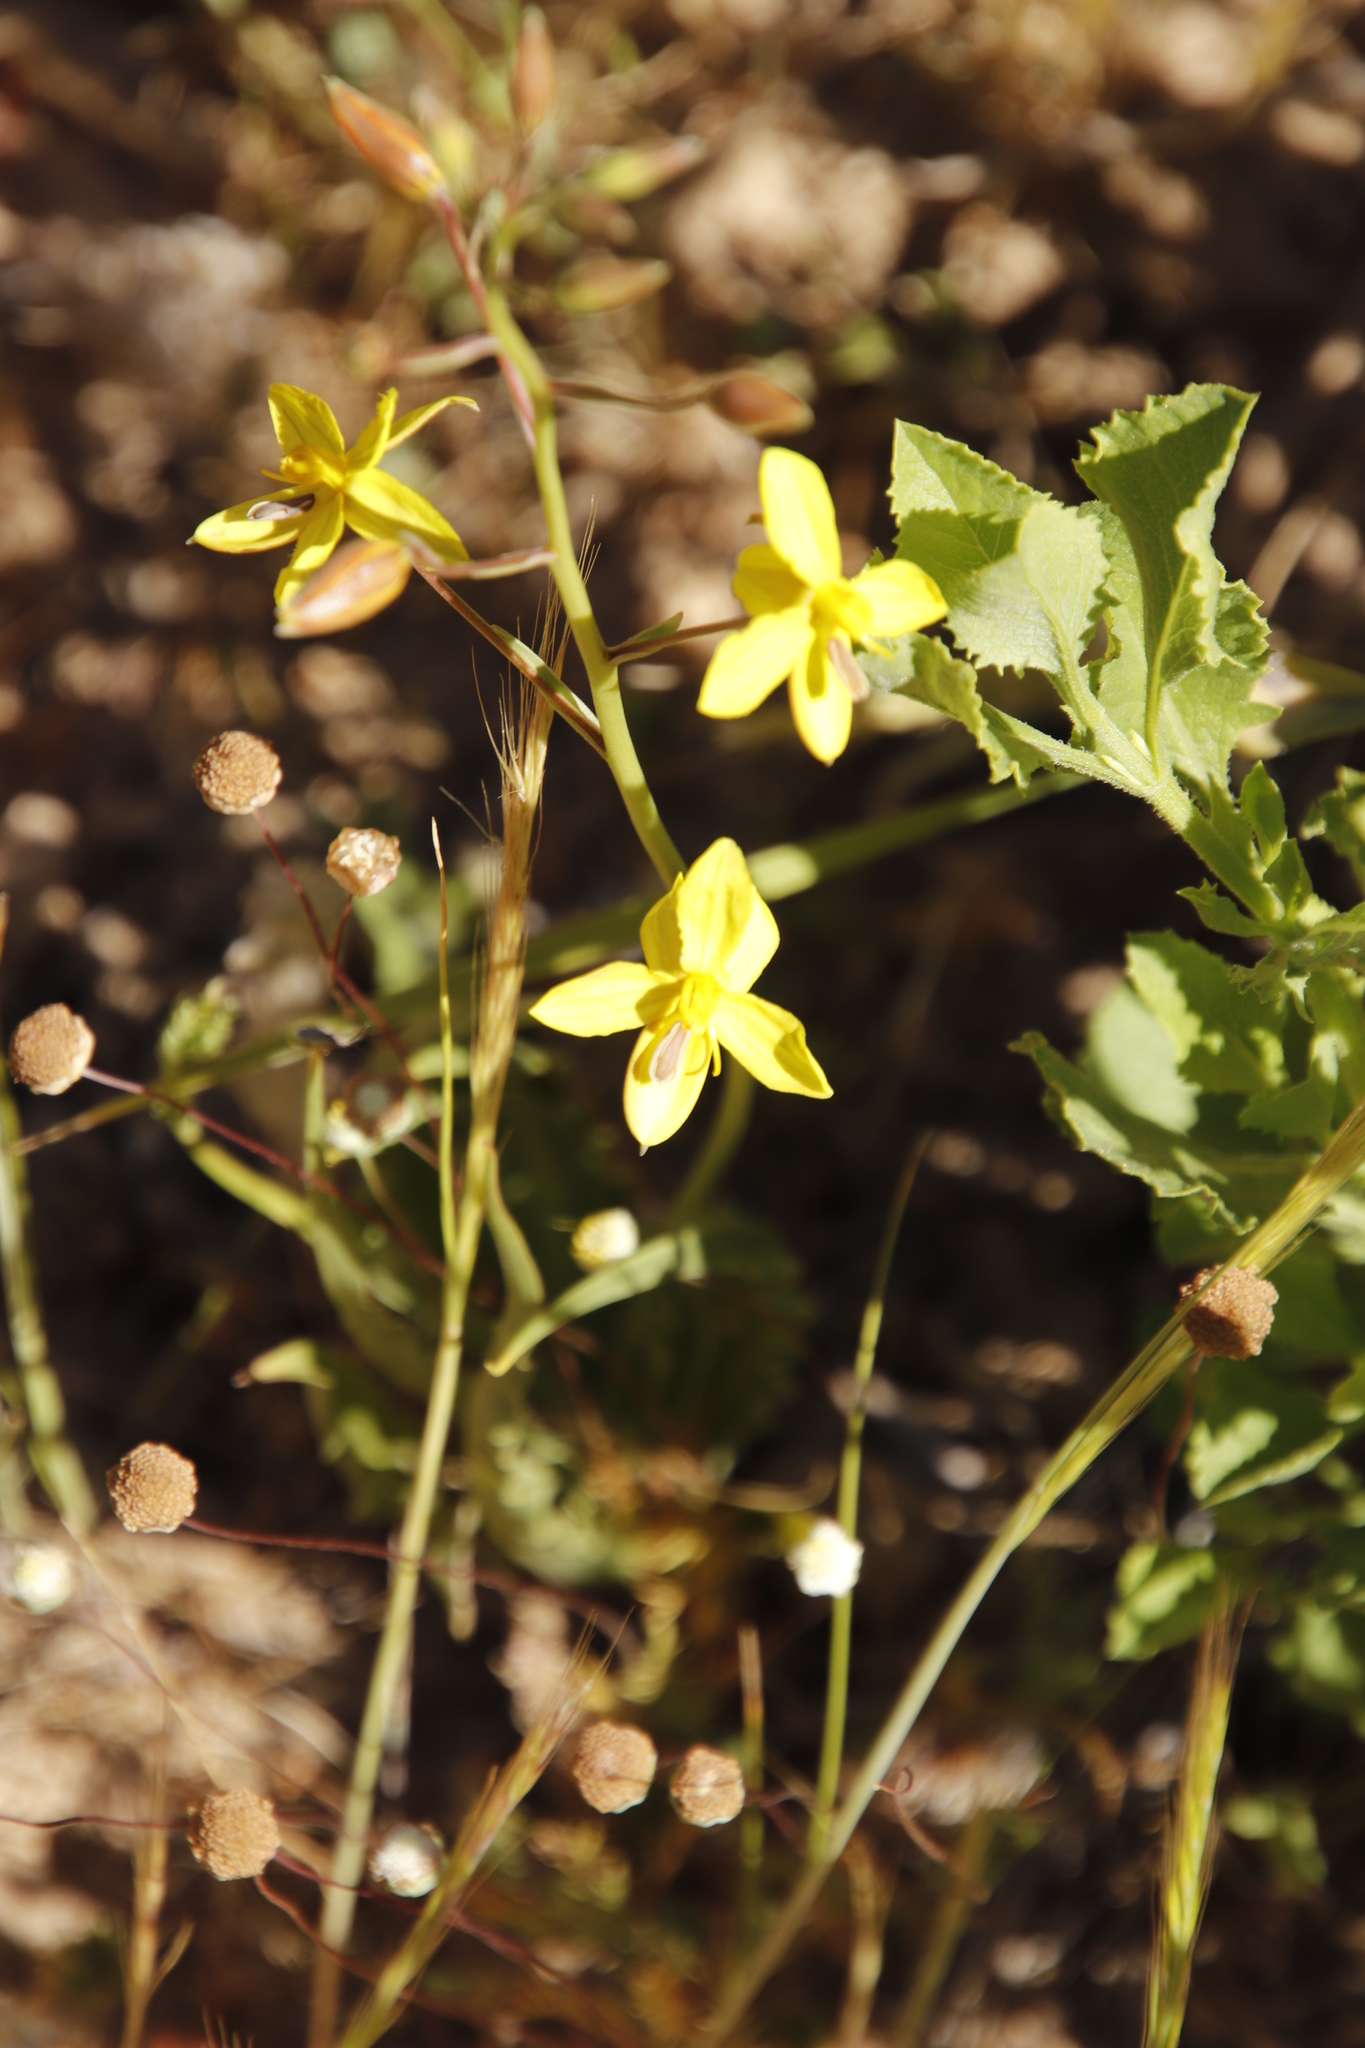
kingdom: Plantae
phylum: Tracheophyta
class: Liliopsida
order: Asparagales
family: Tecophilaeaceae
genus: Cyanella
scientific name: Cyanella lutea
